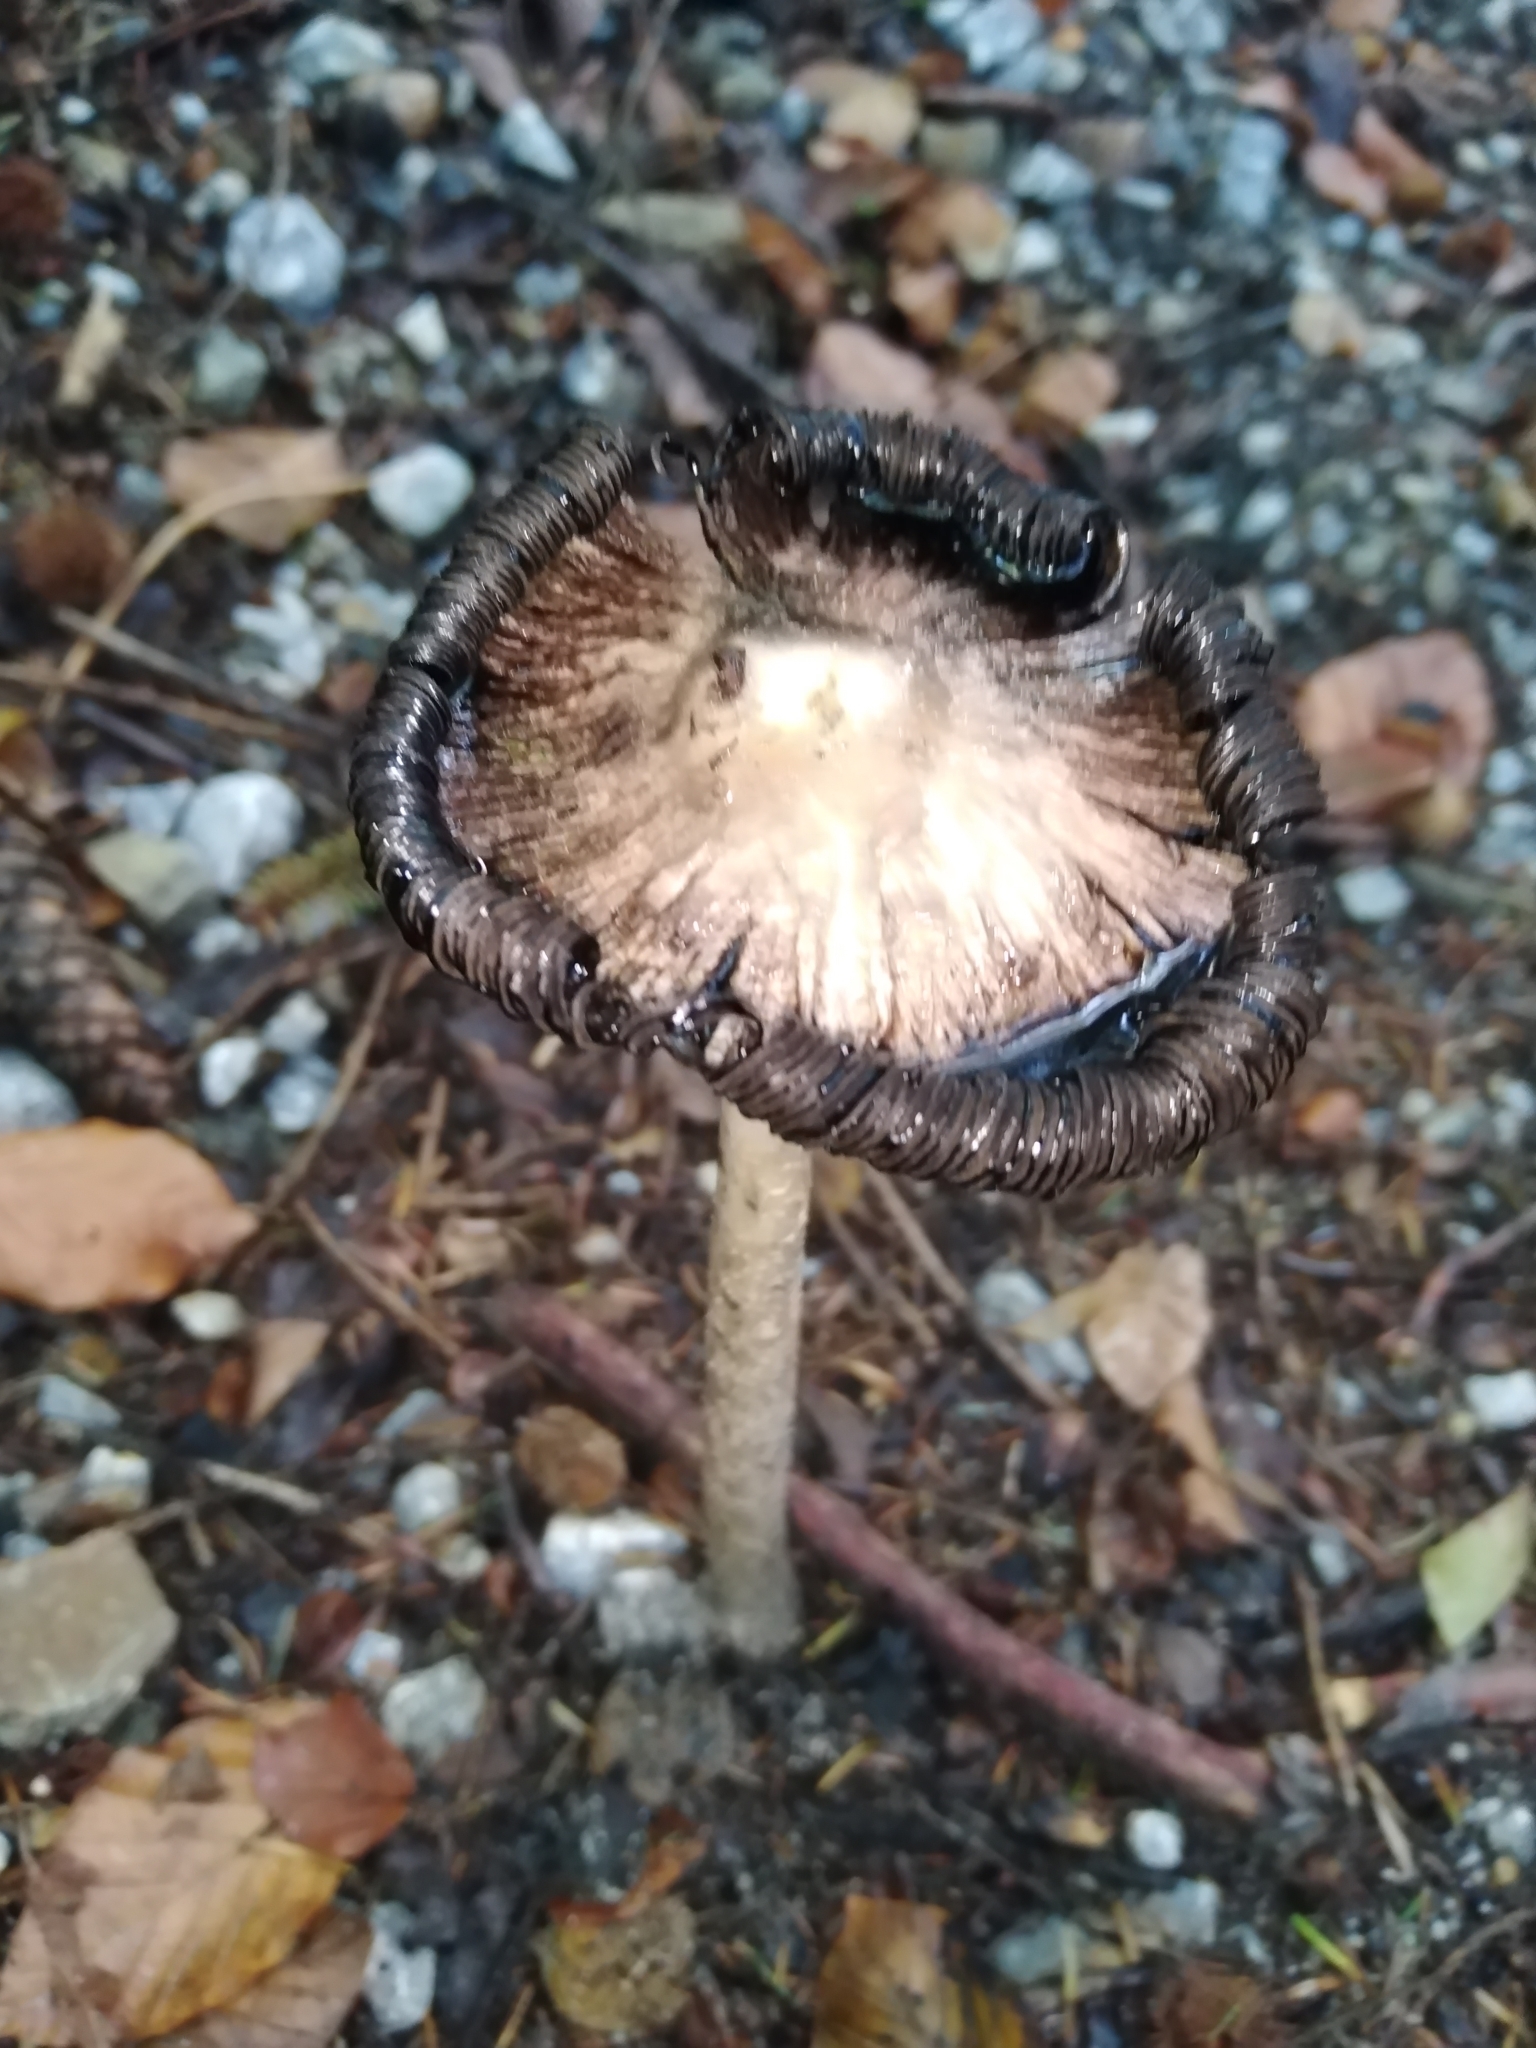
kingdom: Fungi
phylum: Basidiomycota
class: Agaricomycetes
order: Agaricales
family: Agaricaceae
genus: Coprinus
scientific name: Coprinus comatus
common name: Lawyer's wig
